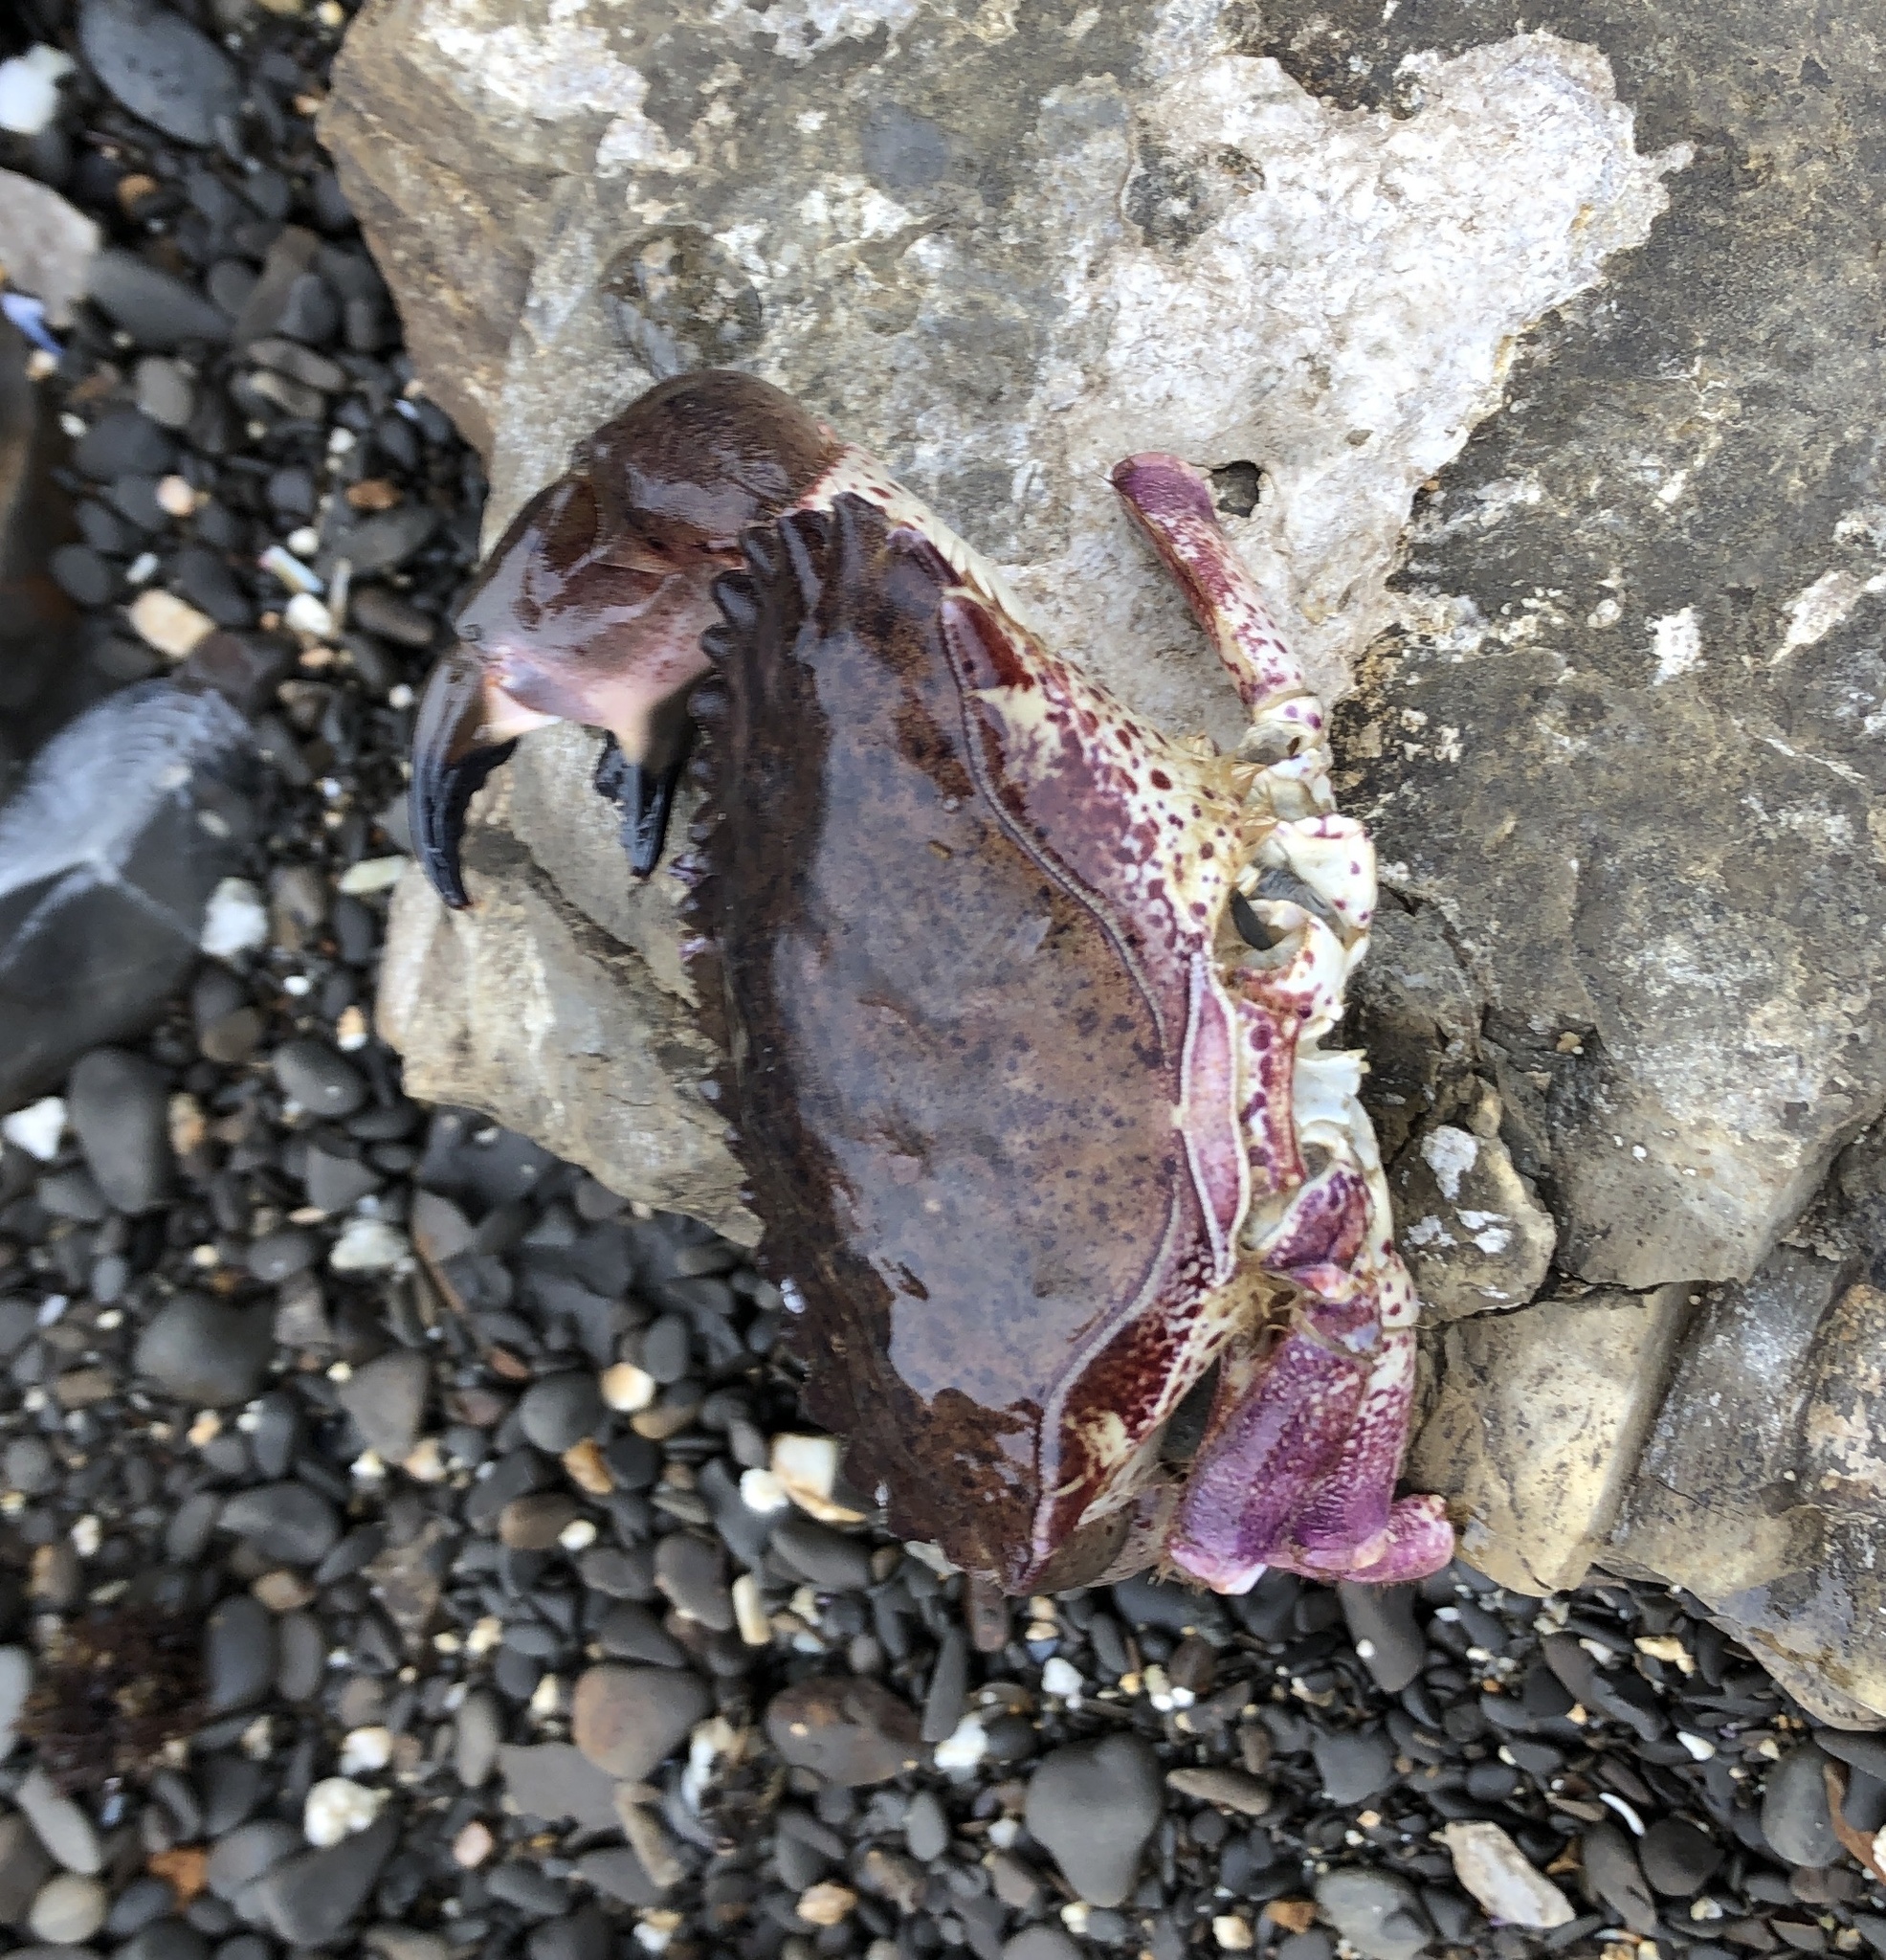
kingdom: Animalia
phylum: Arthropoda
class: Malacostraca
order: Decapoda
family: Cancridae
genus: Romaleon
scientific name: Romaleon antennarium
